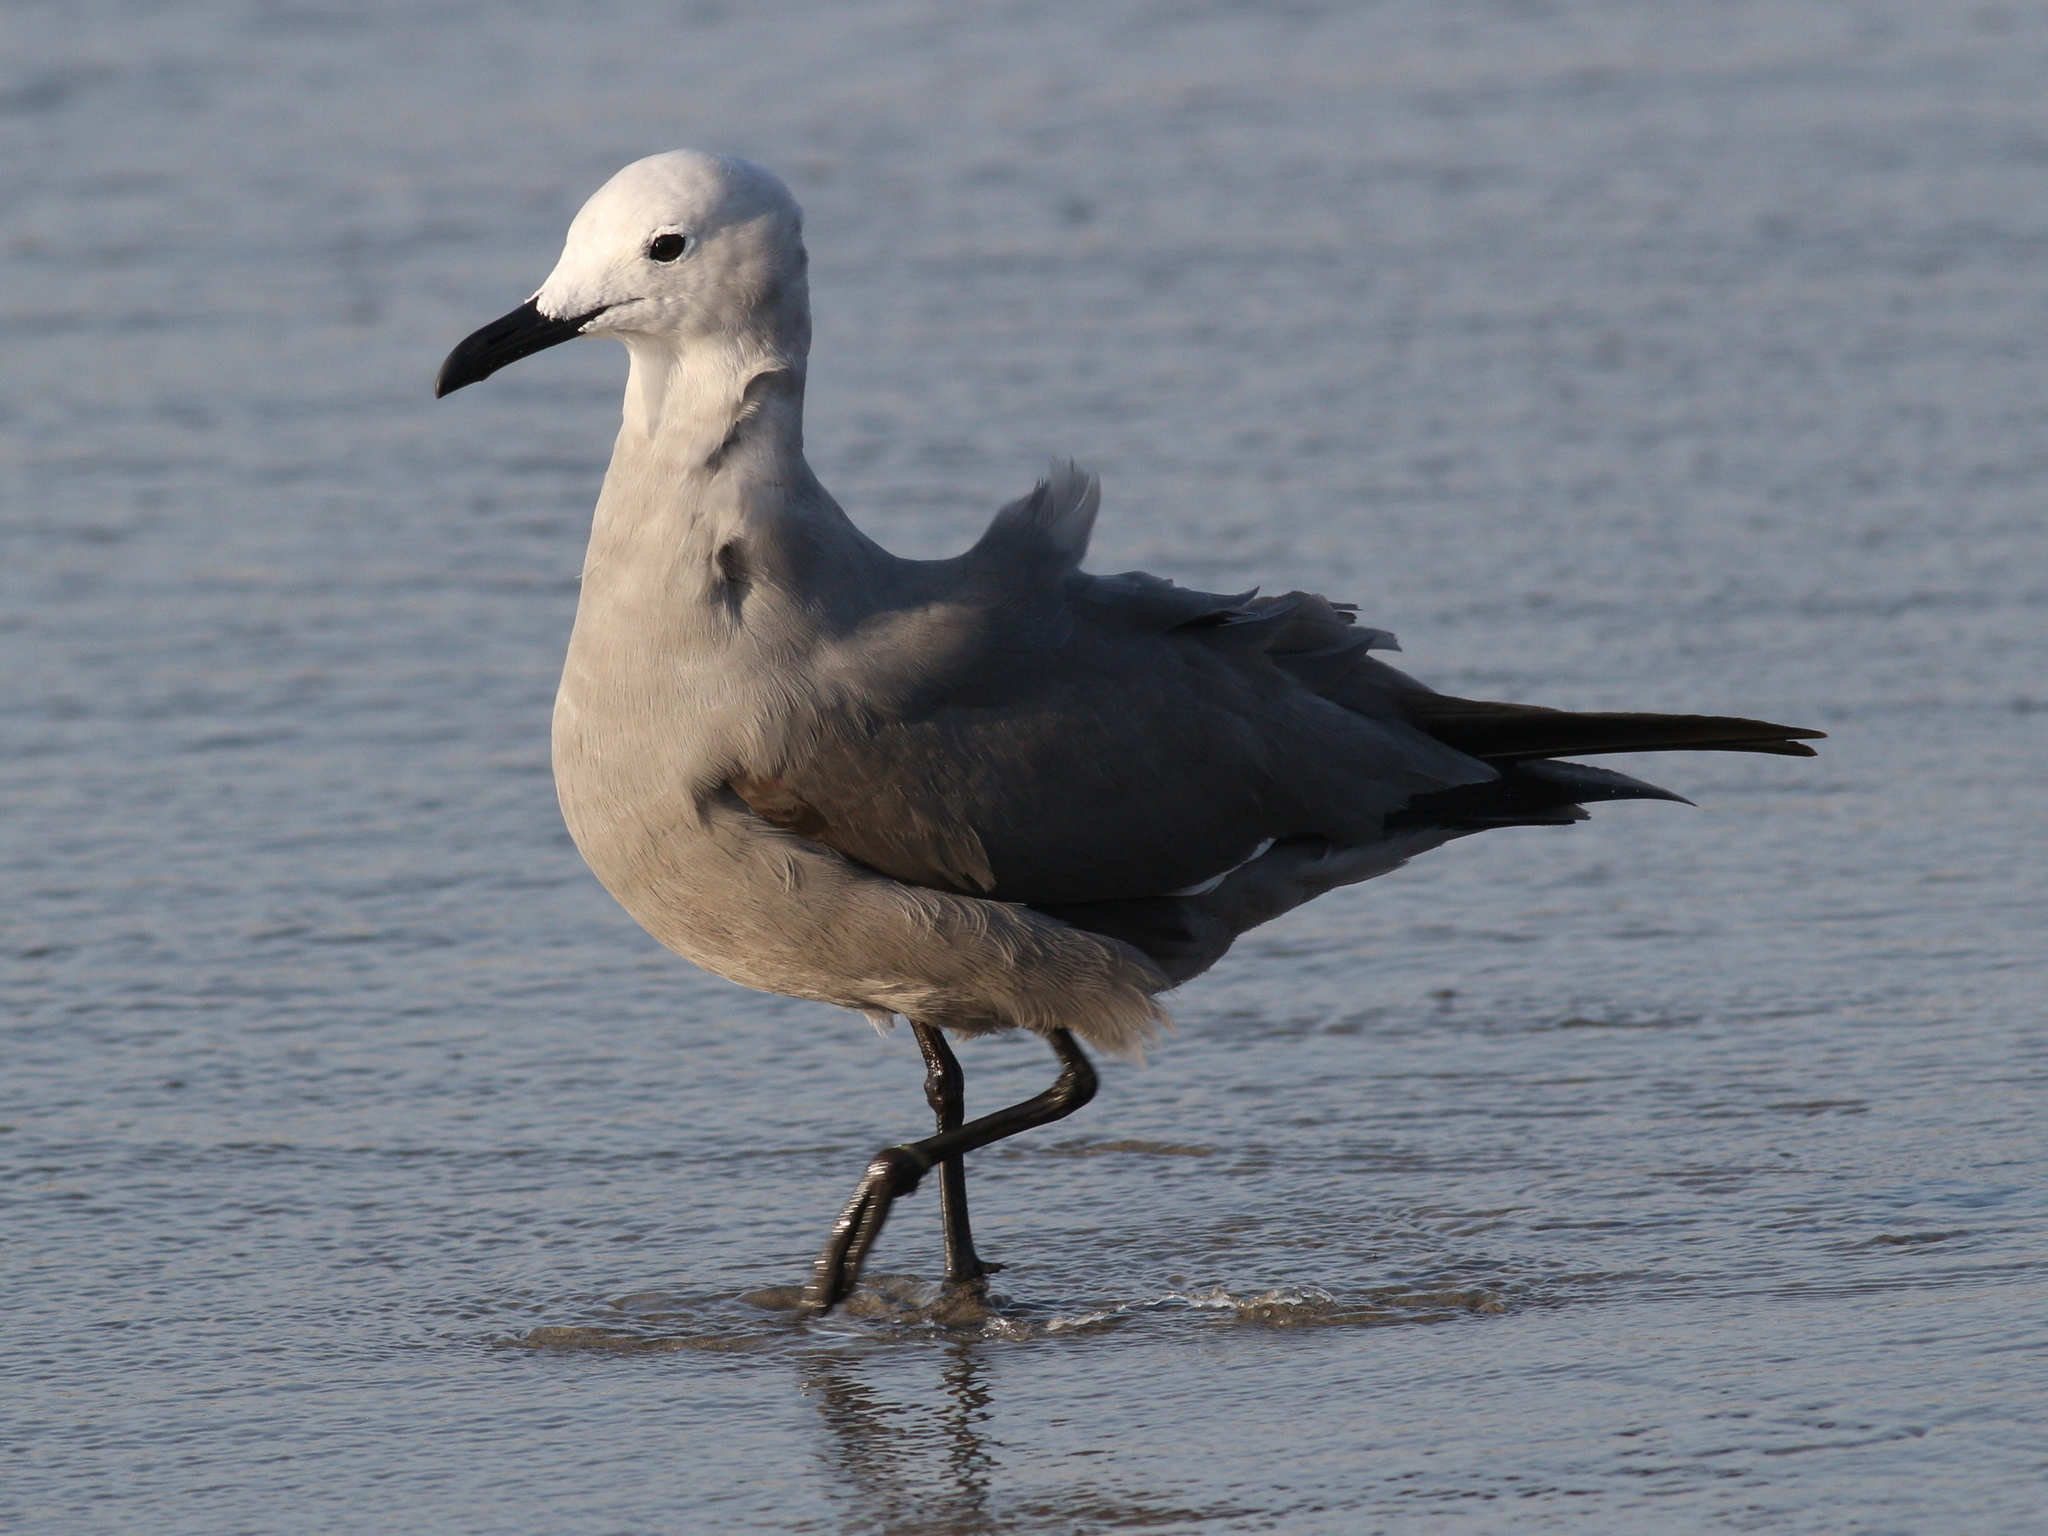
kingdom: Animalia
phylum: Chordata
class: Aves
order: Charadriiformes
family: Laridae
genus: Leucophaeus
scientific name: Leucophaeus modestus
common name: Gray gull
